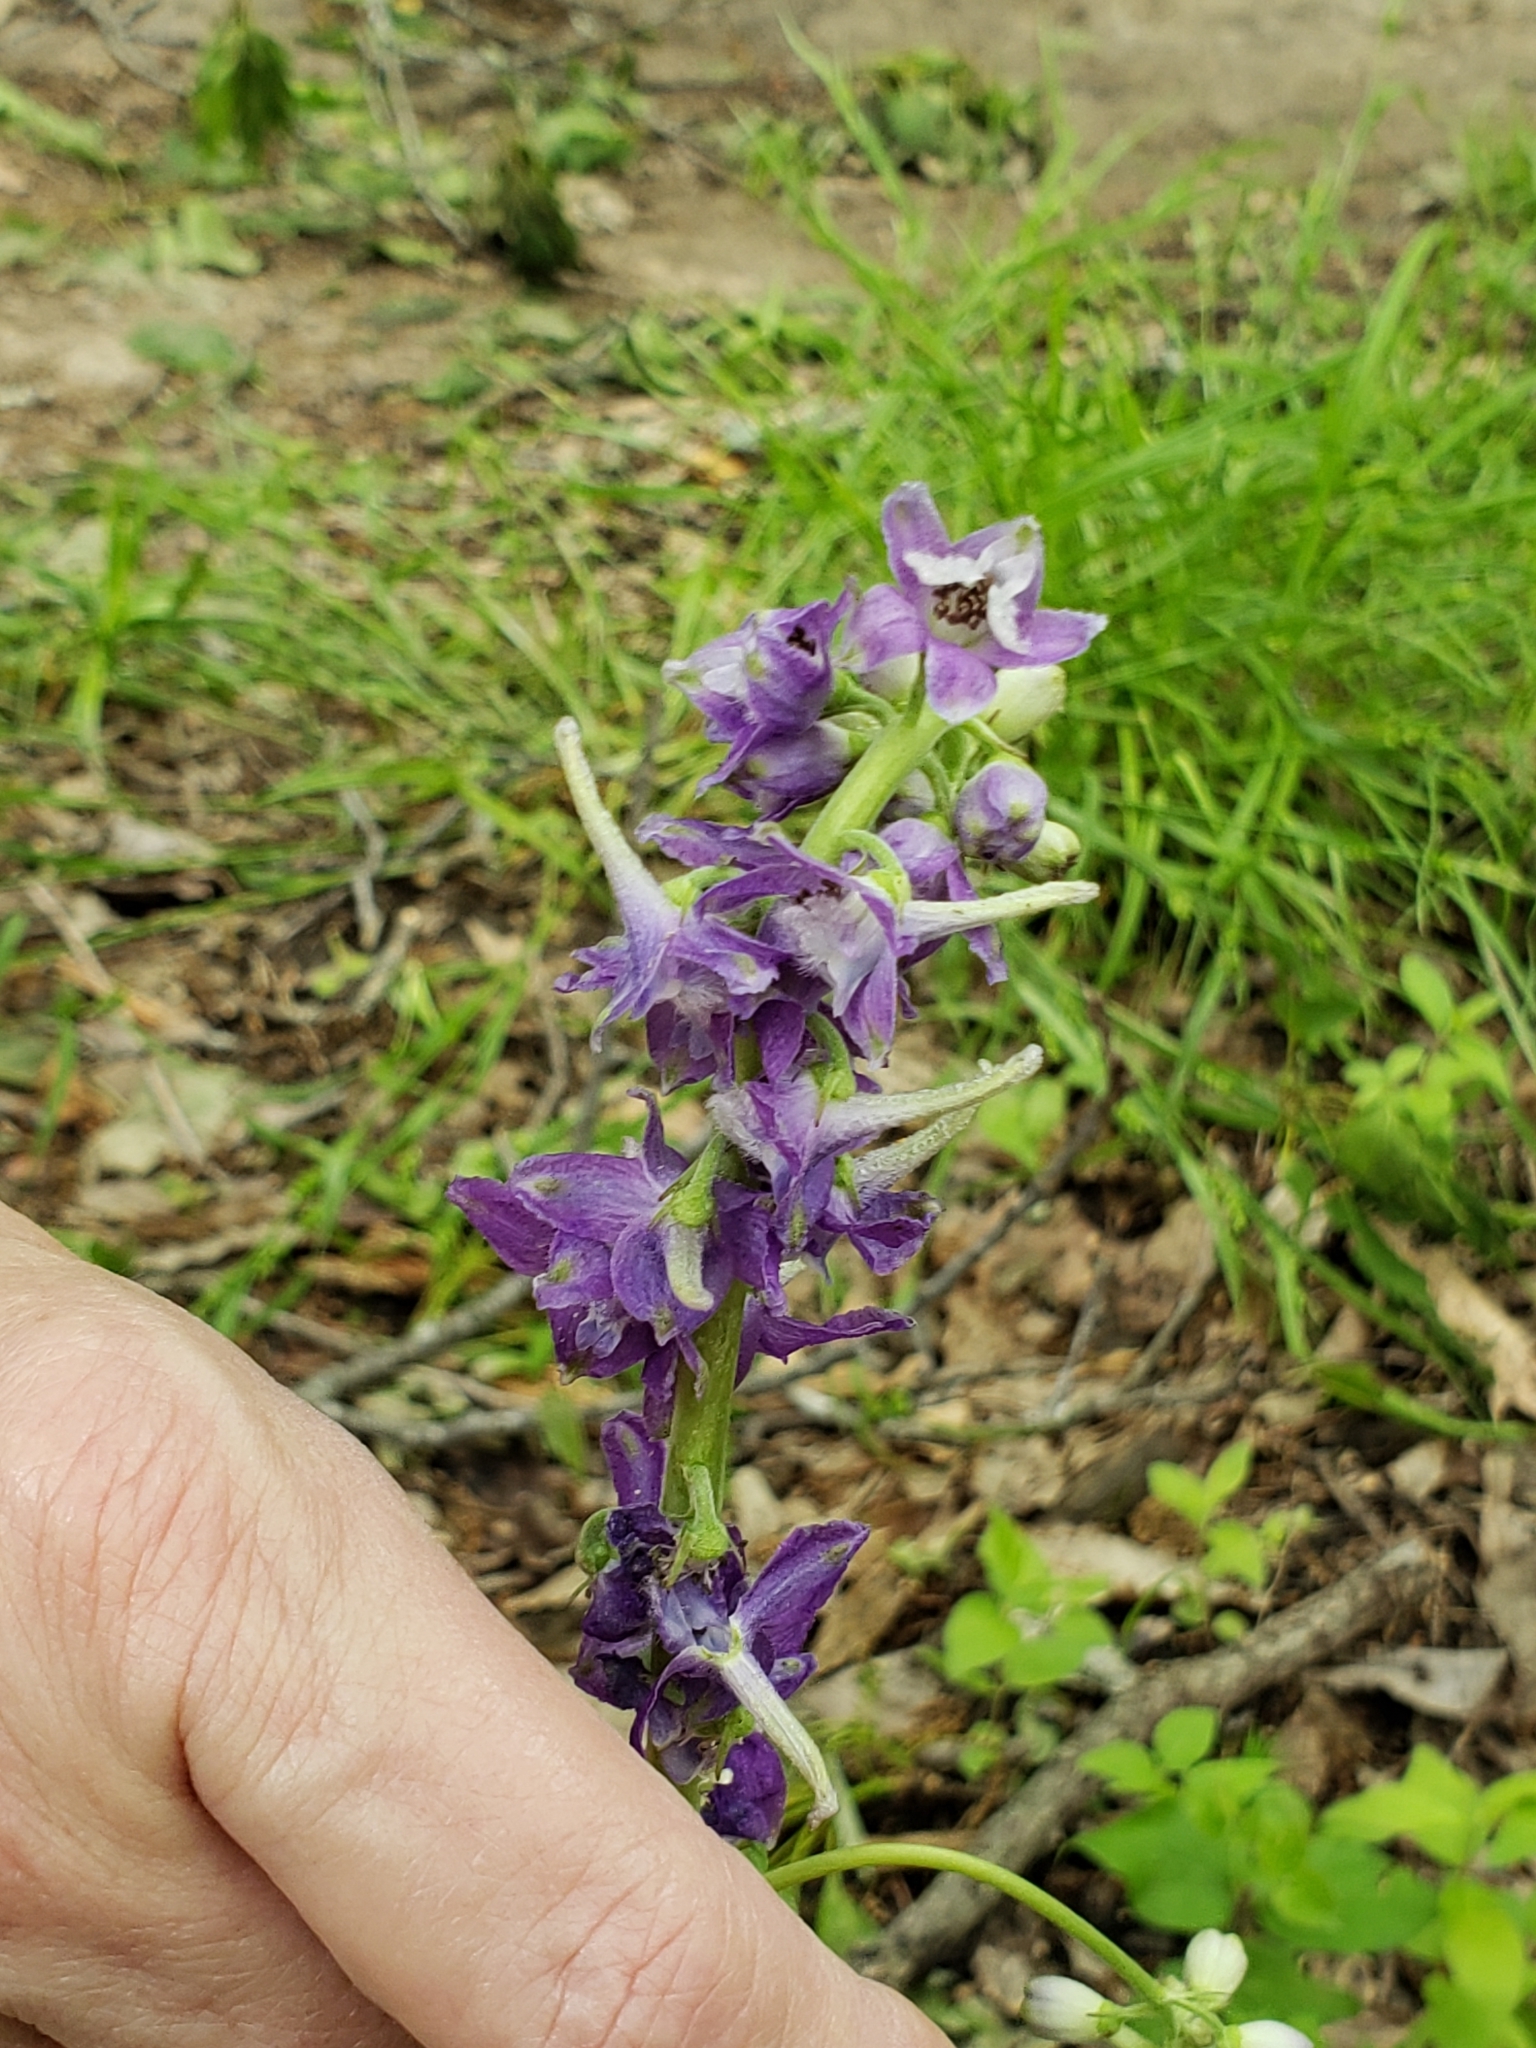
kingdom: Plantae
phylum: Tracheophyta
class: Magnoliopsida
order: Ranunculales
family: Ranunculaceae
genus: Delphinium
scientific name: Delphinium tricorne
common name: Dwarf larkspur
